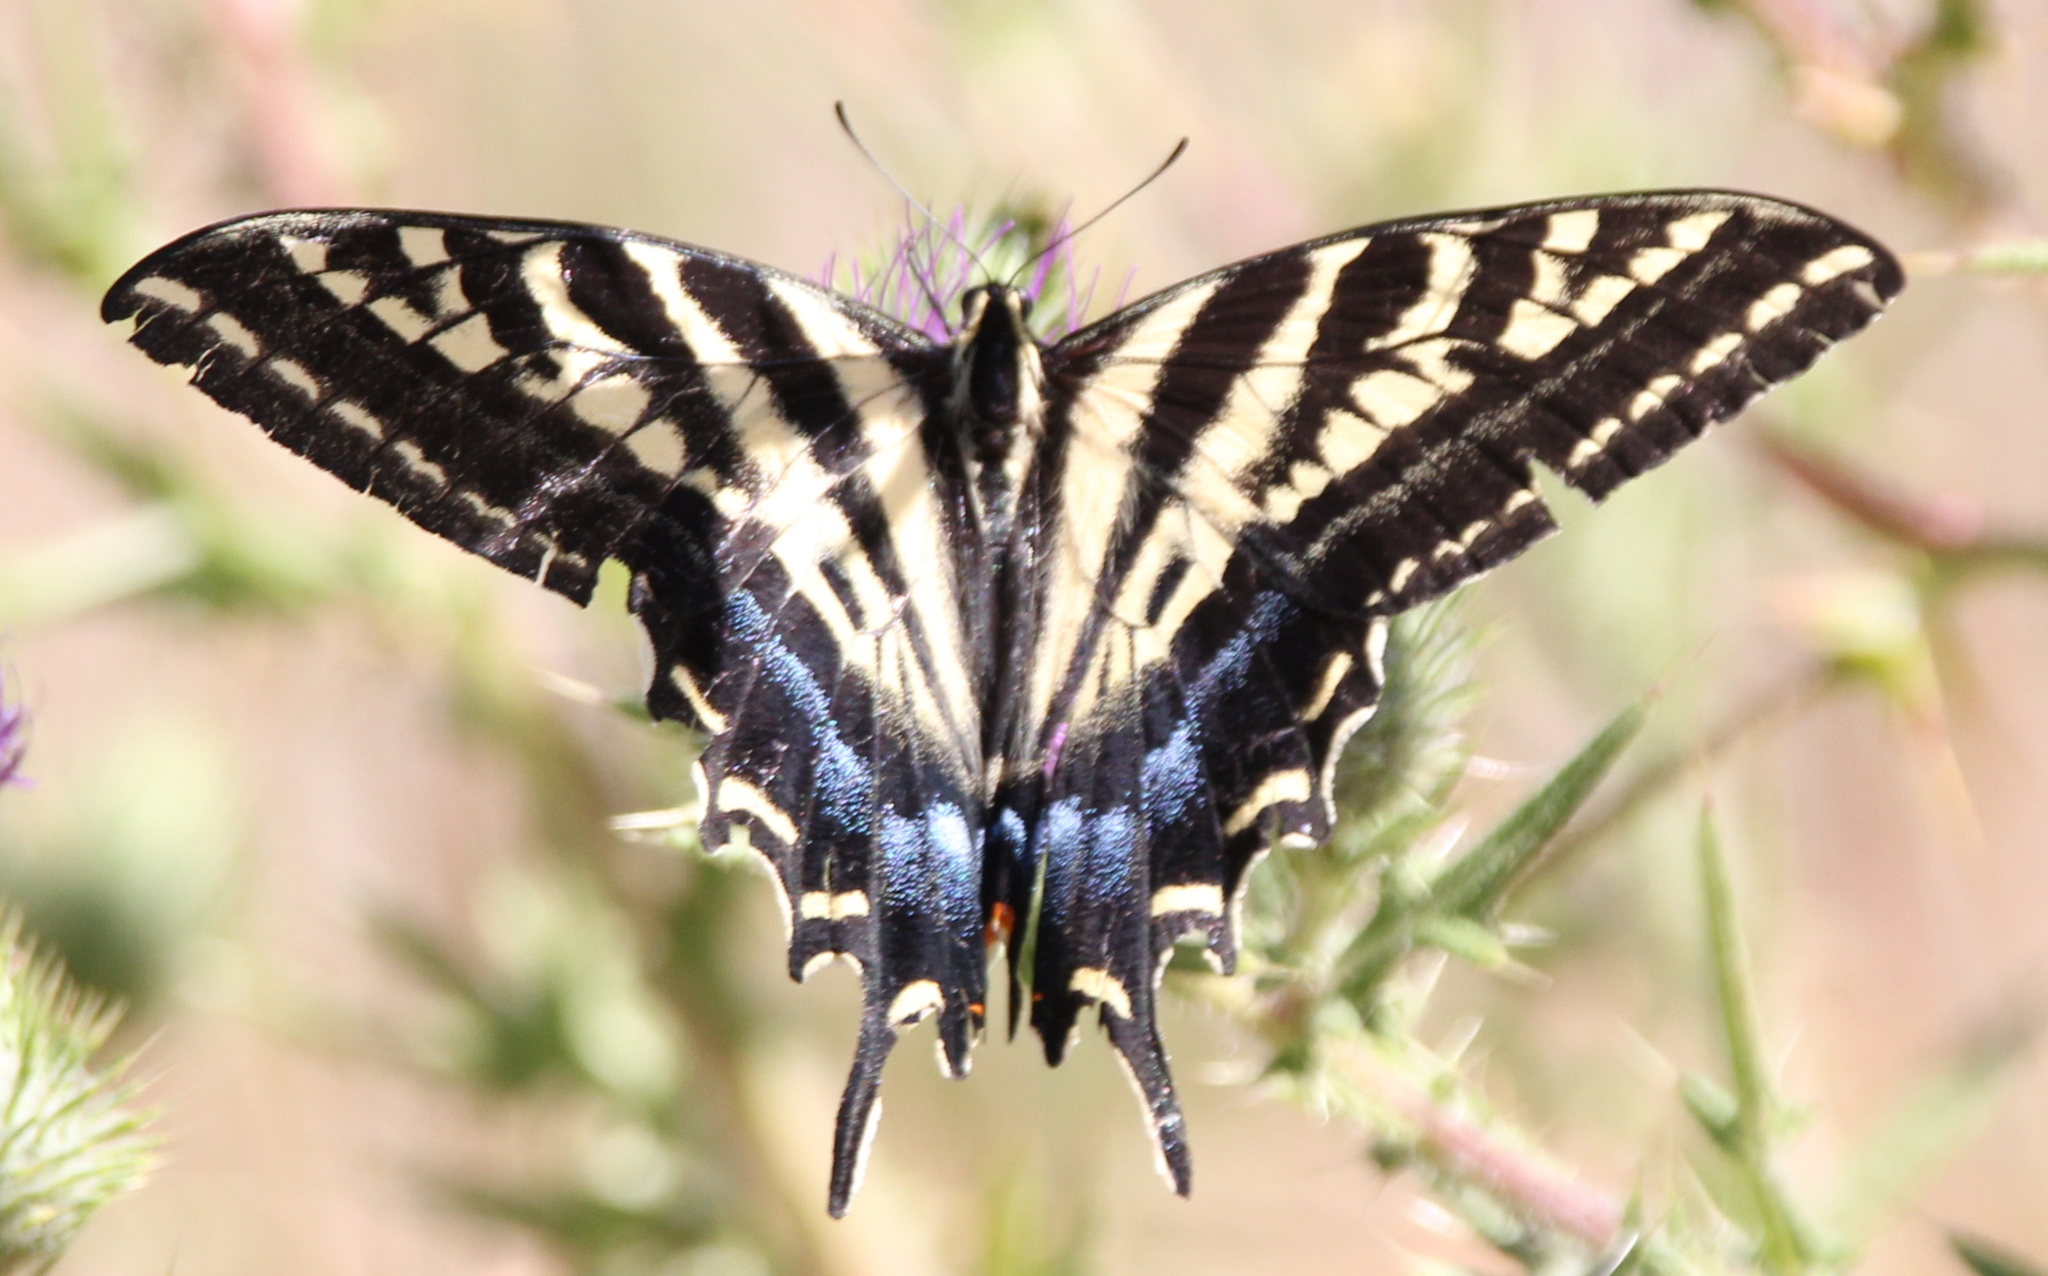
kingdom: Animalia
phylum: Arthropoda
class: Insecta
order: Lepidoptera
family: Papilionidae
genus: Papilio
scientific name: Papilio eurymedon
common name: Pale tiger swallowtail
